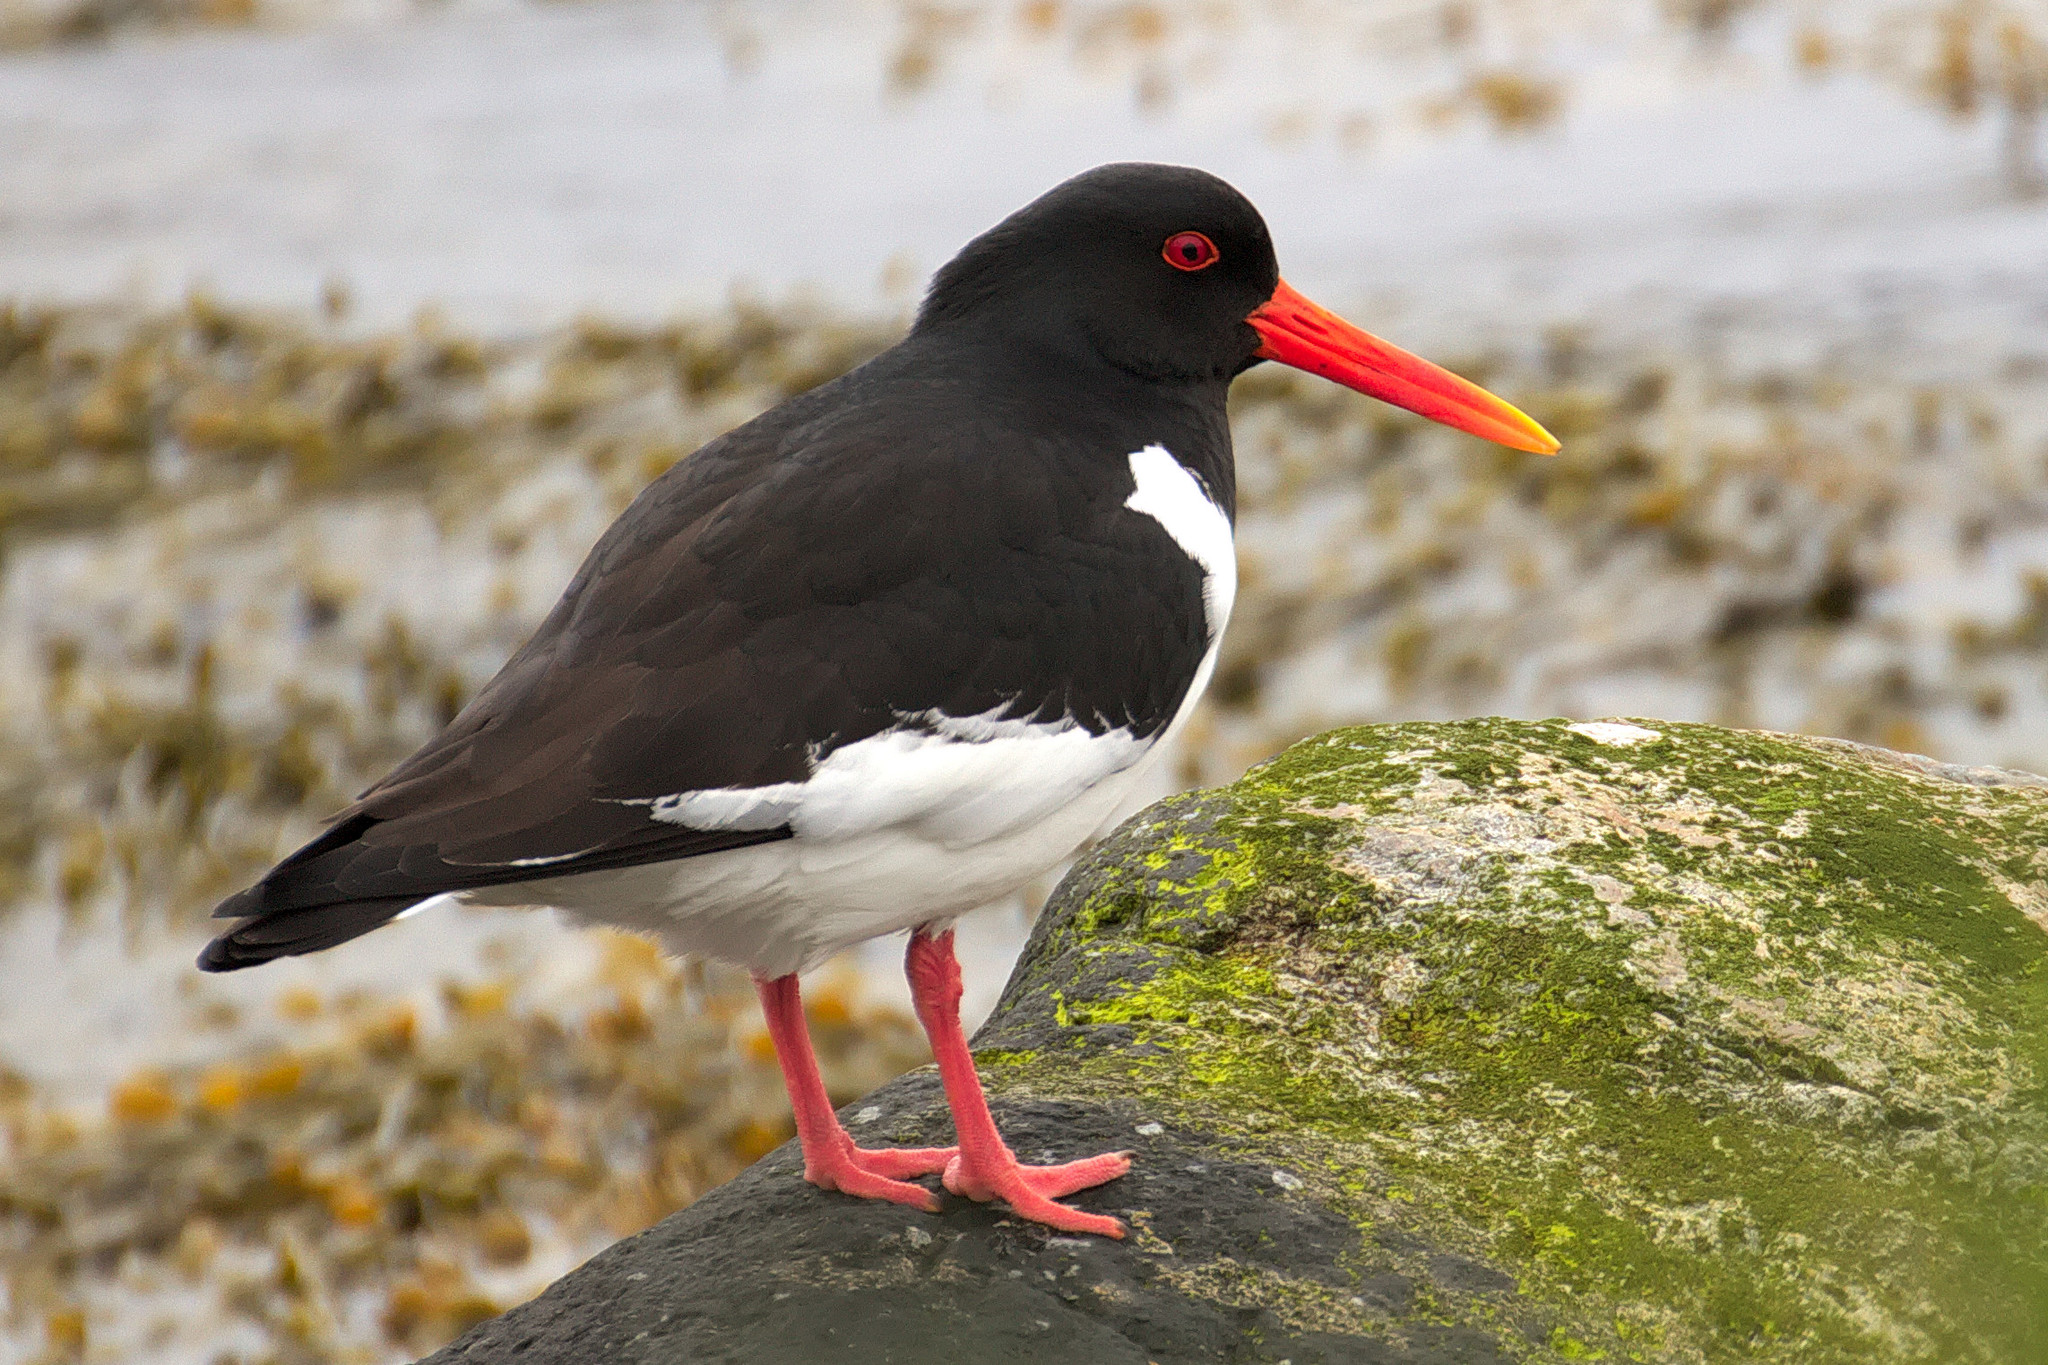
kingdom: Animalia
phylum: Chordata
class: Aves
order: Charadriiformes
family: Haematopodidae
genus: Haematopus
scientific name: Haematopus ostralegus
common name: Eurasian oystercatcher
